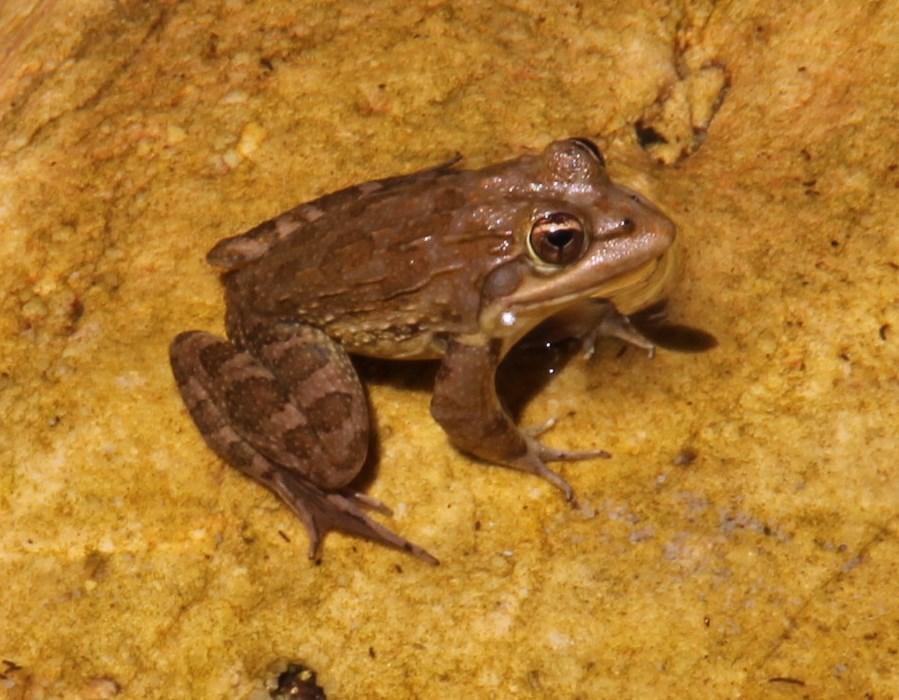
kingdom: Animalia
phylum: Chordata
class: Amphibia
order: Anura
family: Pyxicephalidae
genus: Amietia
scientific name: Amietia fuscigula
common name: Cape rana
